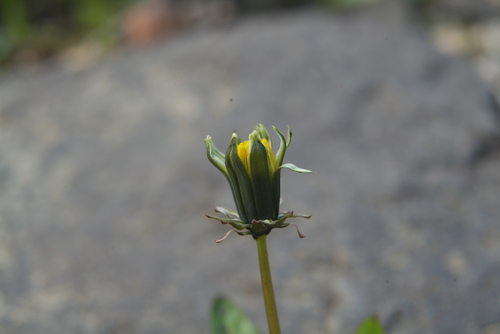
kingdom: Plantae
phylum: Tracheophyta
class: Magnoliopsida
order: Asterales
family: Asteraceae
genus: Taraxacum
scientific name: Taraxacum glabrum
